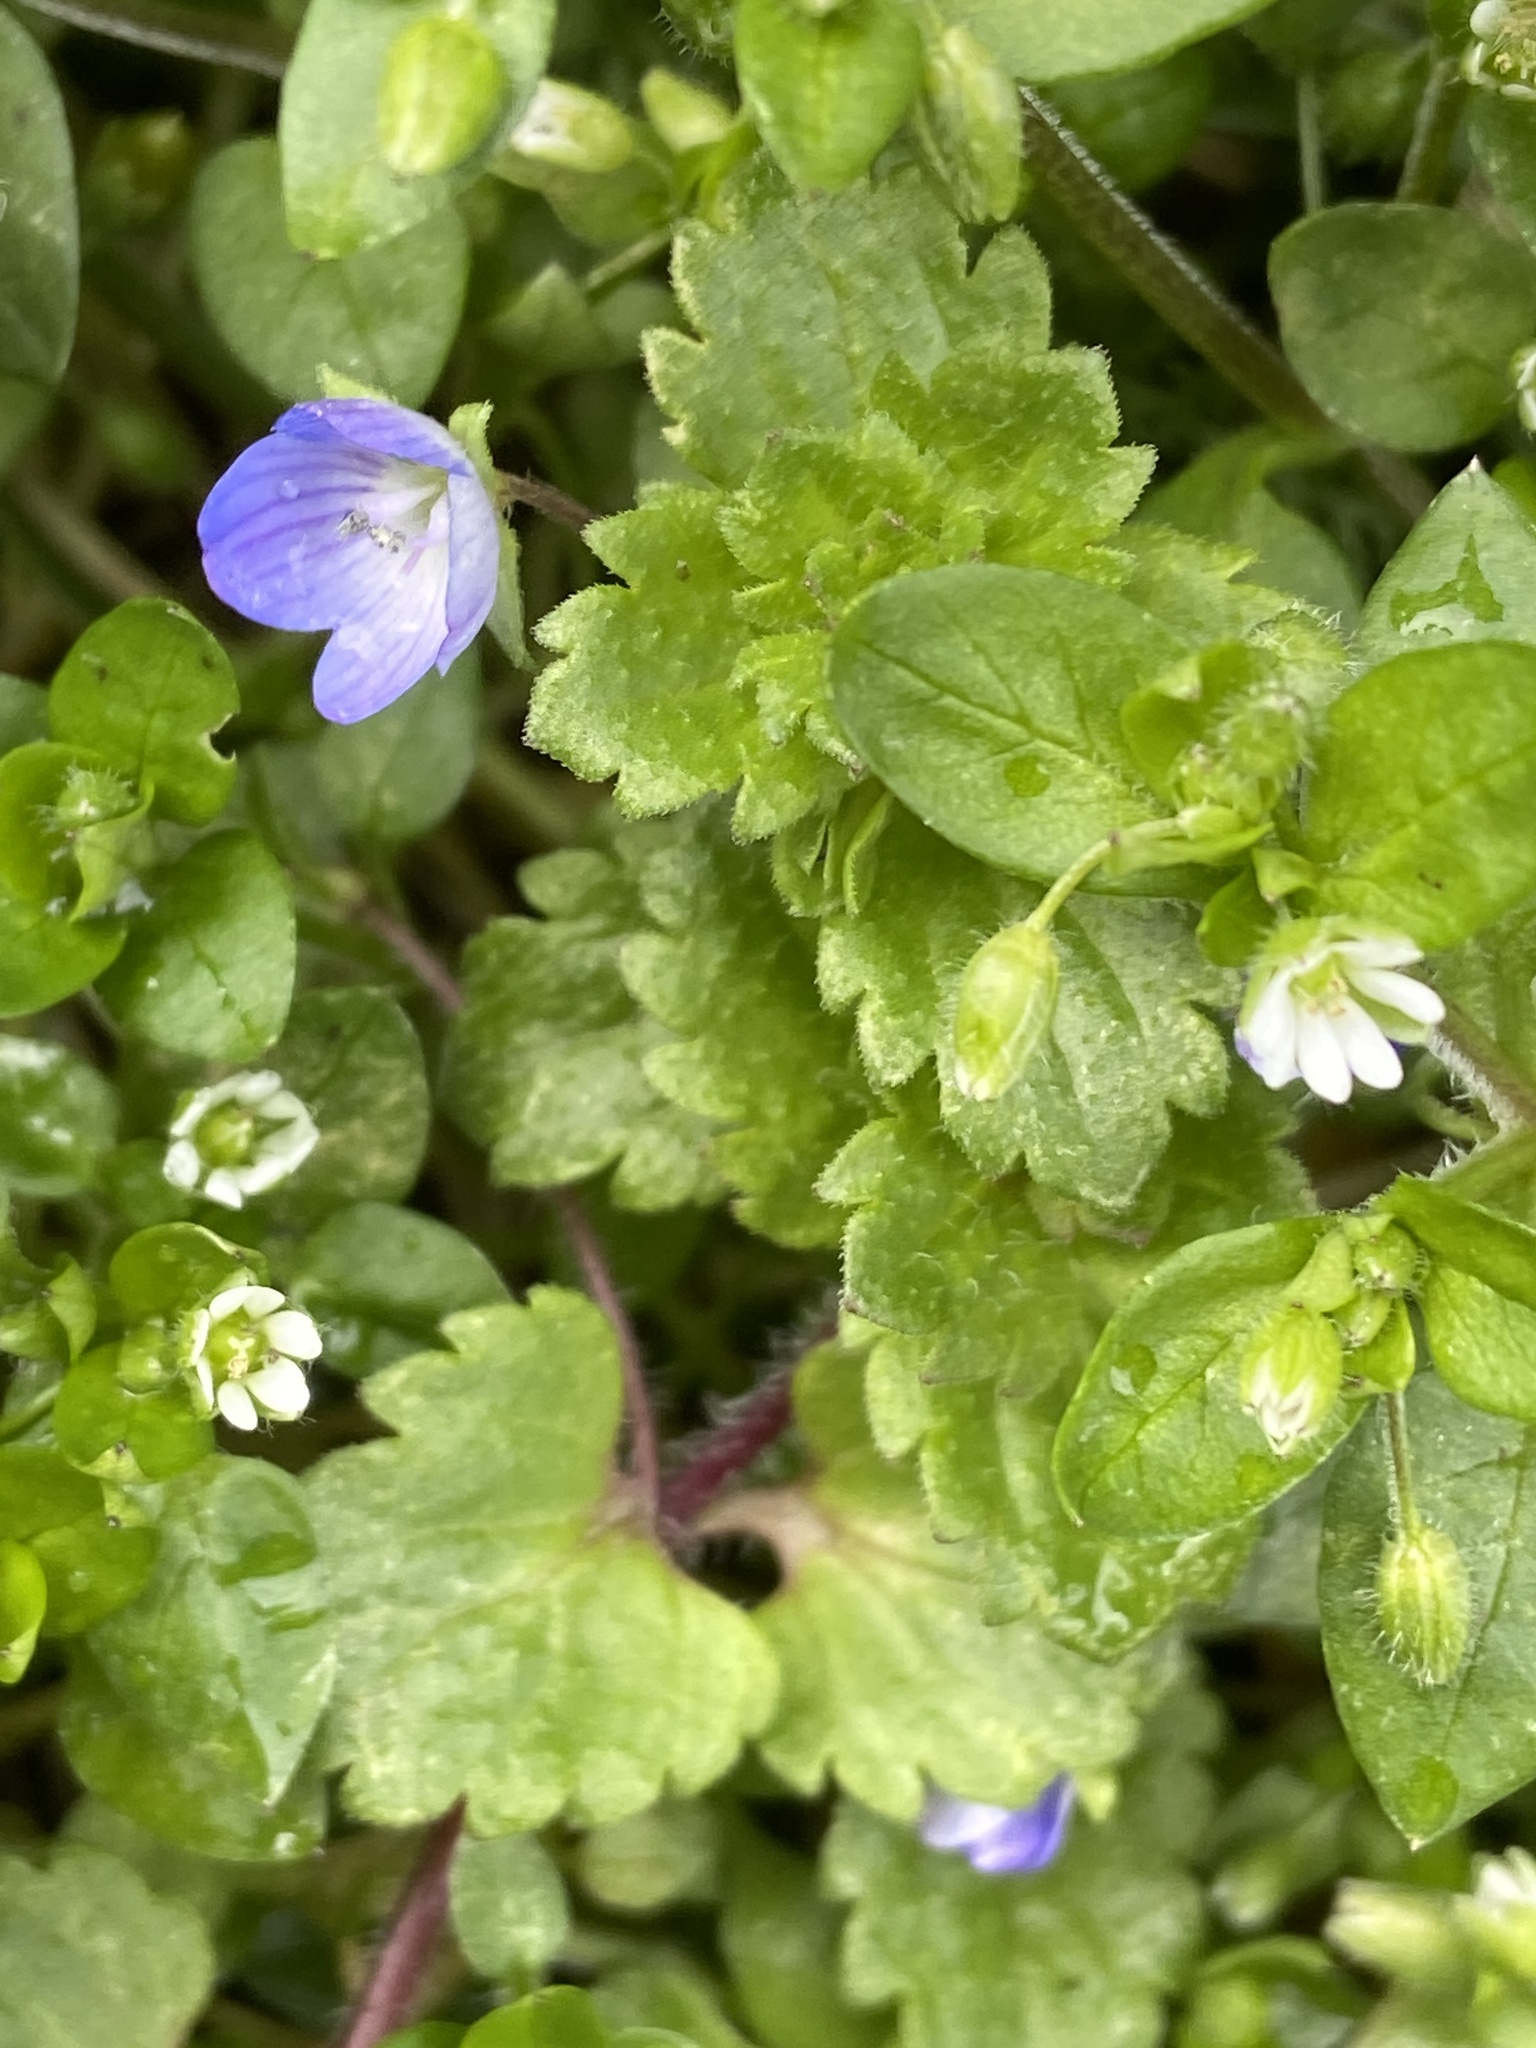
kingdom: Plantae
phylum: Tracheophyta
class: Magnoliopsida
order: Lamiales
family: Plantaginaceae
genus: Veronica
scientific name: Veronica persica
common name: Common field-speedwell
